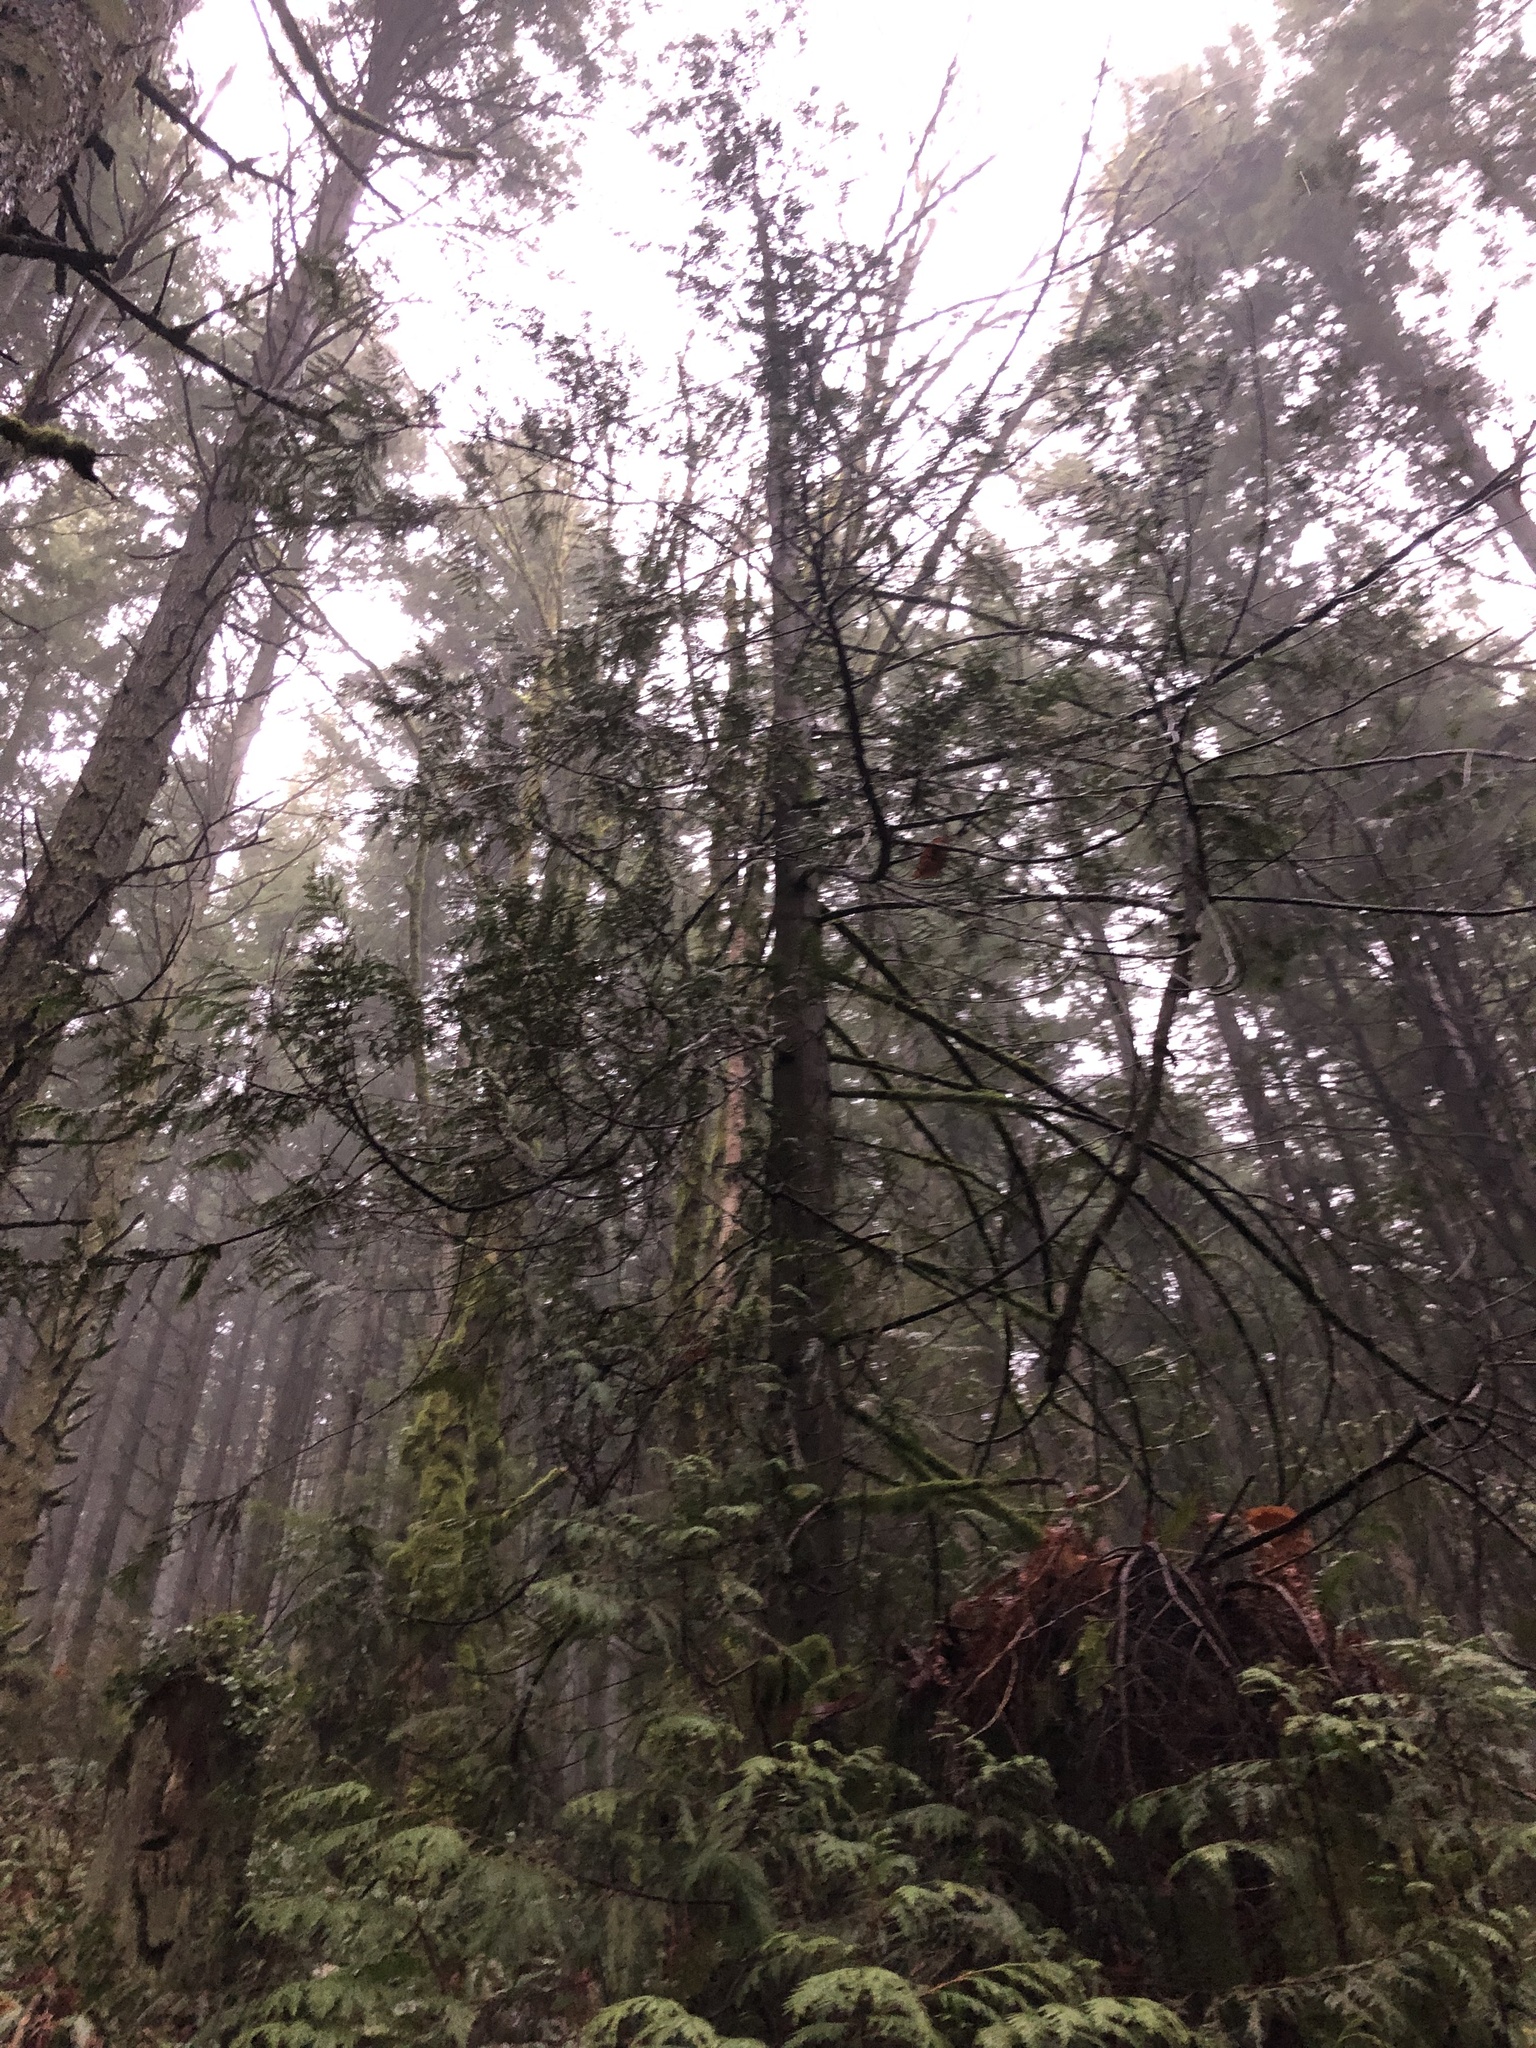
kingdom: Plantae
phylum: Tracheophyta
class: Pinopsida
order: Pinales
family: Cupressaceae
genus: Thuja
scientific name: Thuja plicata
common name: Western red-cedar
